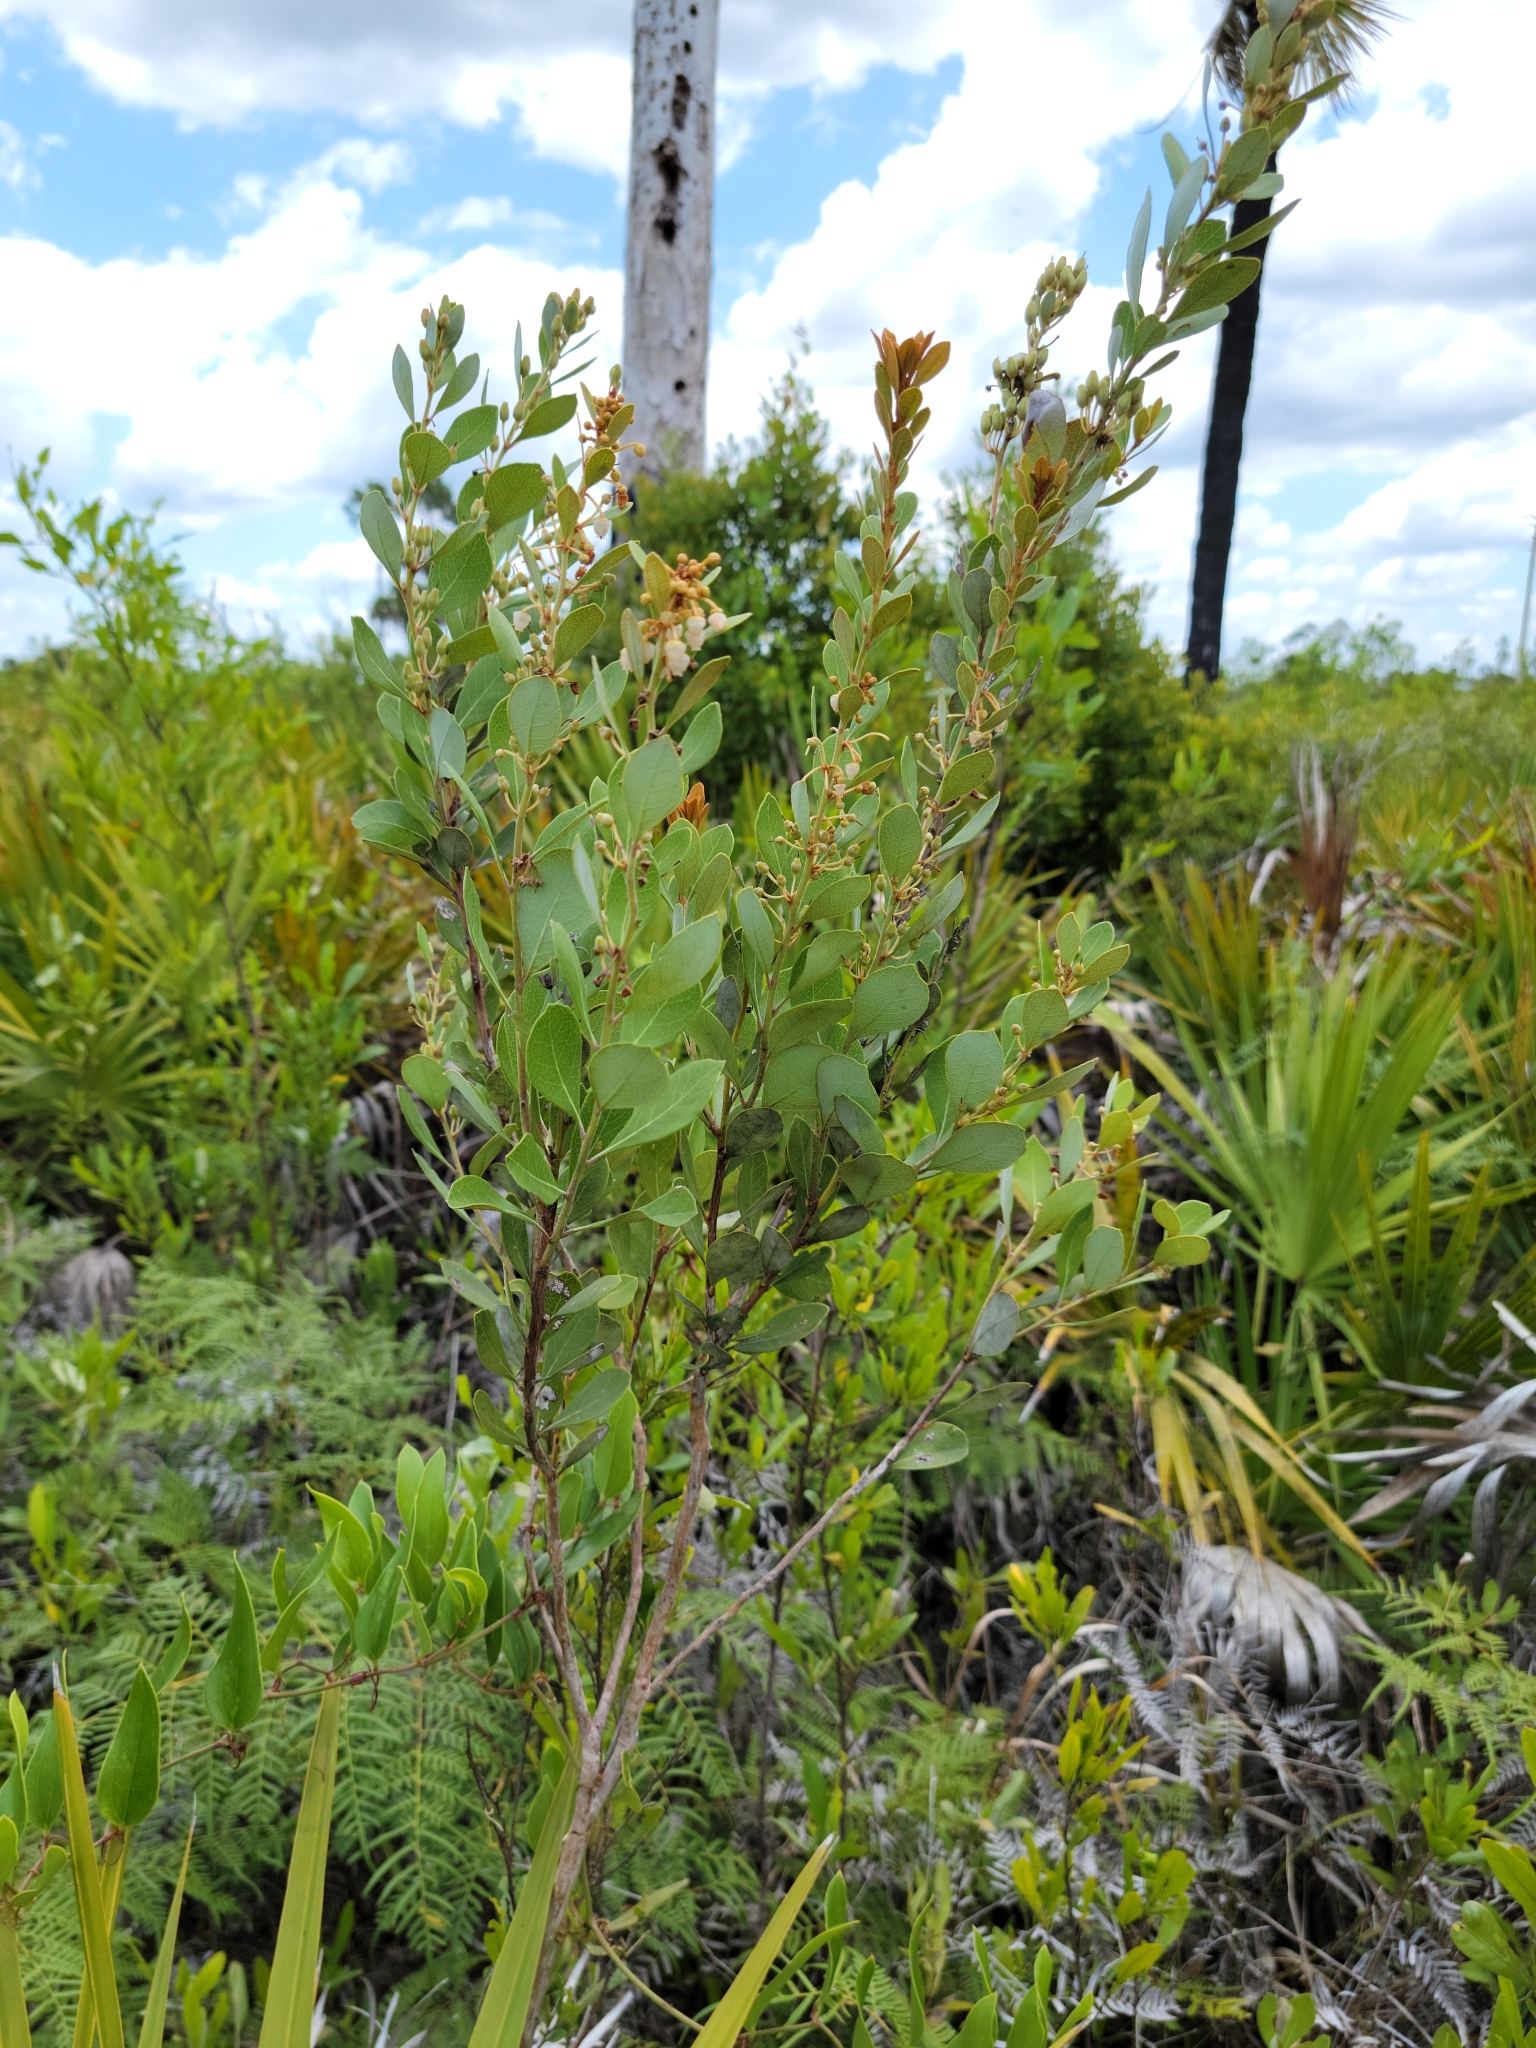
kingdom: Plantae
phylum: Tracheophyta
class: Magnoliopsida
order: Ericales
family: Ericaceae
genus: Lyonia
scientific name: Lyonia fruticosa
